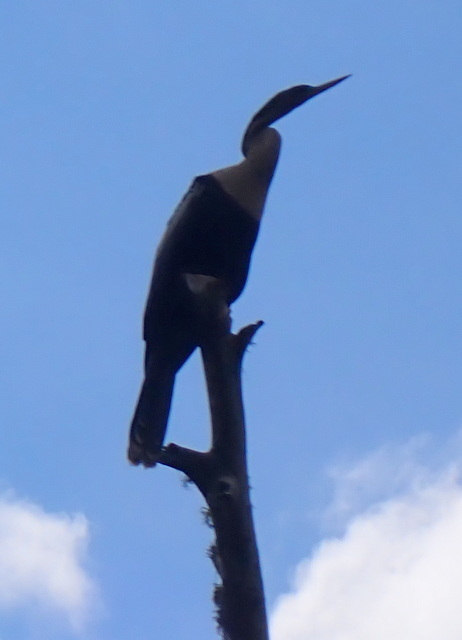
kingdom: Animalia
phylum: Chordata
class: Aves
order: Suliformes
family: Anhingidae
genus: Anhinga
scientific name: Anhinga anhinga
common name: Anhinga
